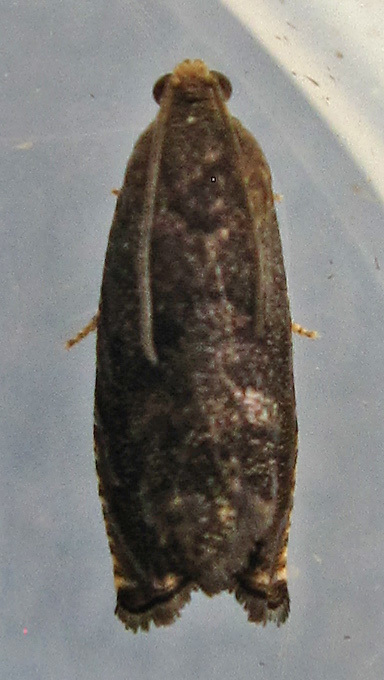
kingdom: Animalia
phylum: Arthropoda
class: Insecta
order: Lepidoptera
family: Tortricidae
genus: Cydia
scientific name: Cydia caryana
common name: Hickory shuckworm moth
